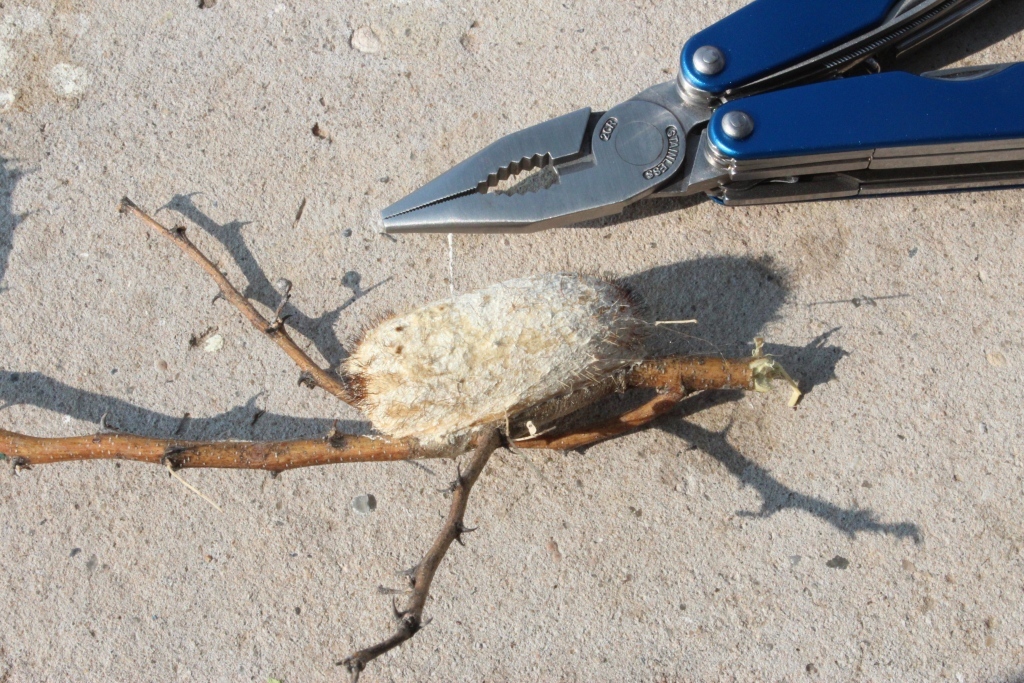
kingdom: Animalia
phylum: Arthropoda
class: Insecta
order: Lepidoptera
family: Lasiocampidae
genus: Gonometa
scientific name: Gonometa postica
